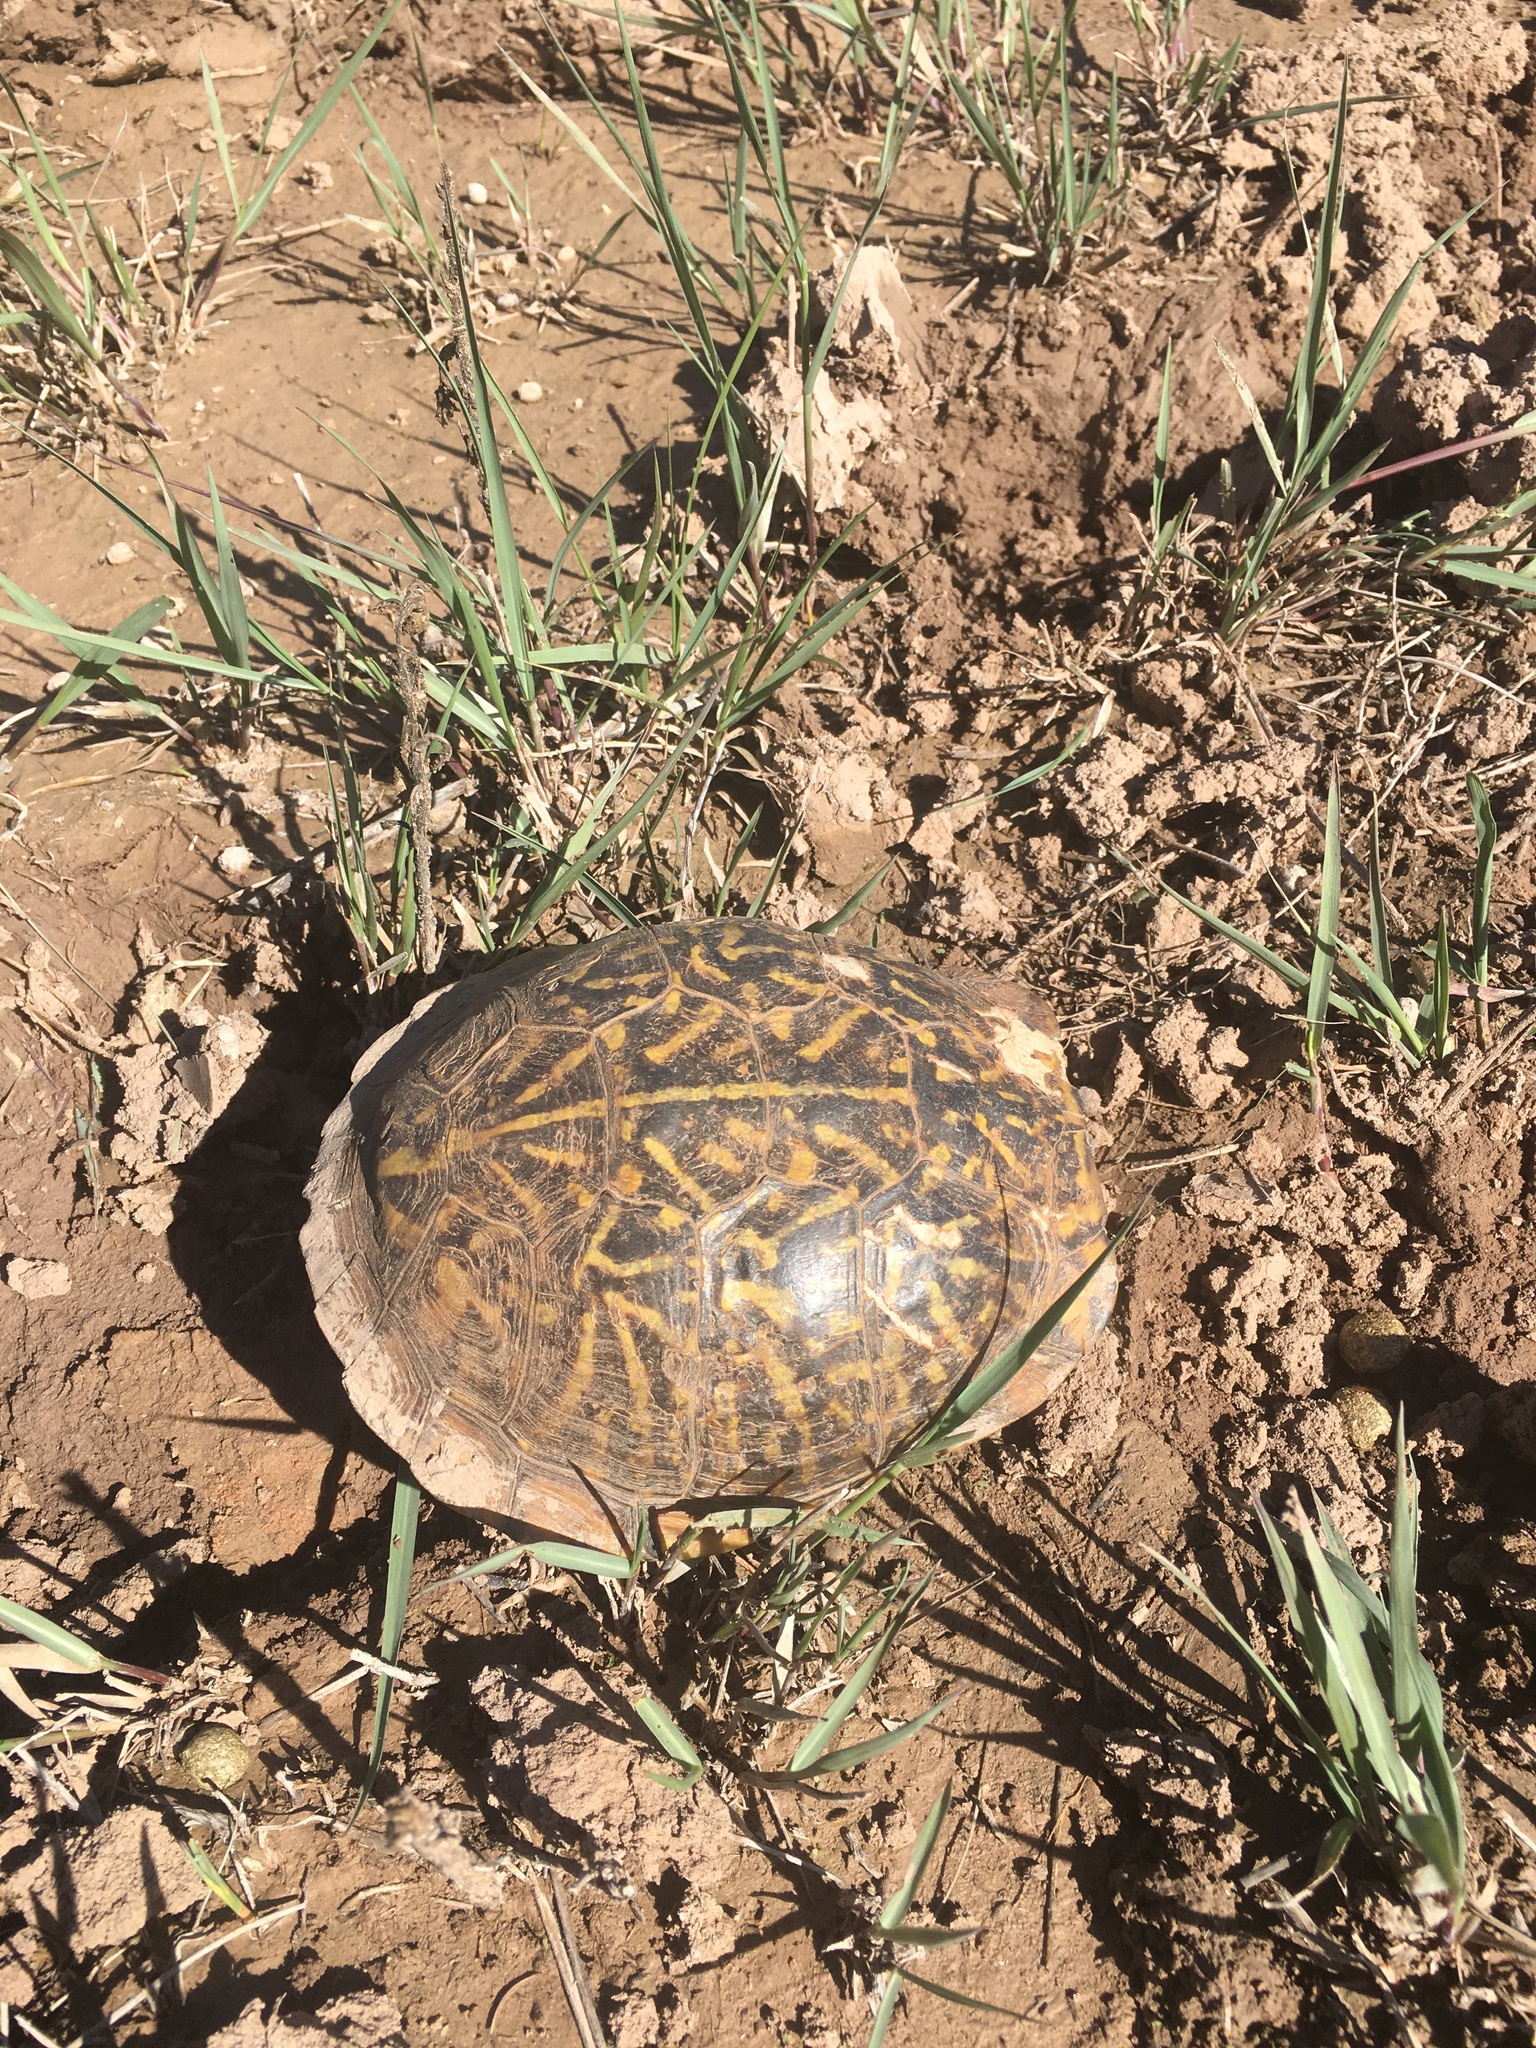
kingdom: Animalia
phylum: Chordata
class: Testudines
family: Emydidae
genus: Terrapene
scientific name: Terrapene ornata
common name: Western box turtle
